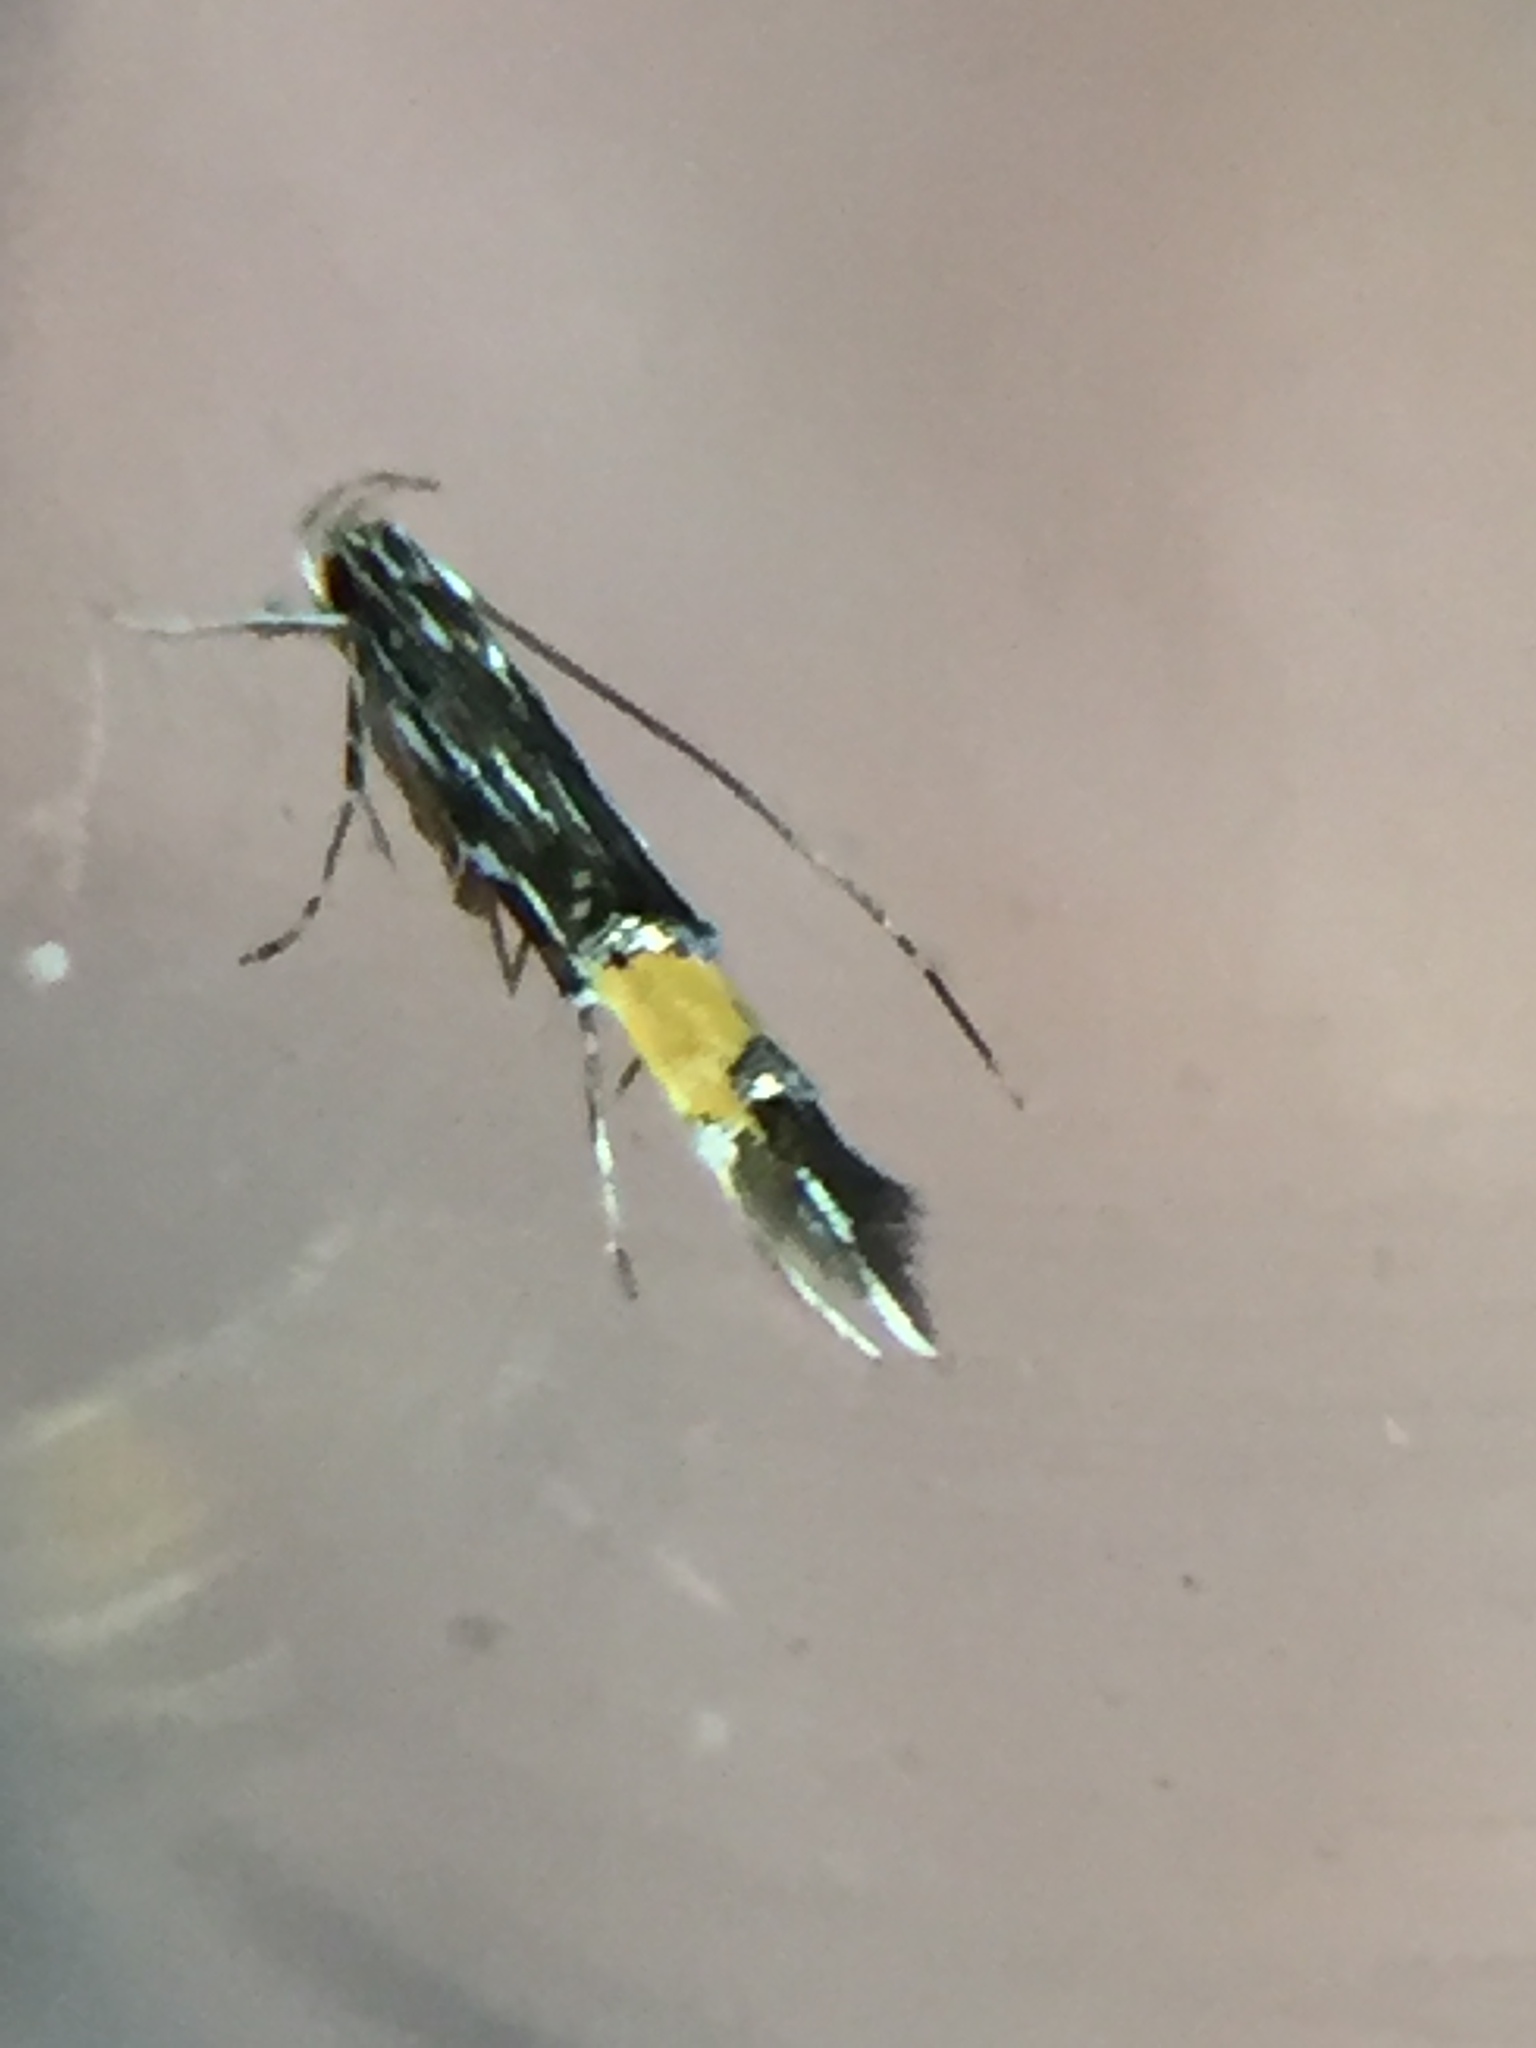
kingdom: Animalia
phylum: Arthropoda
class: Insecta
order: Lepidoptera
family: Cosmopterigidae
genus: Cosmopterix
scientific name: Cosmopterix attenuatella
